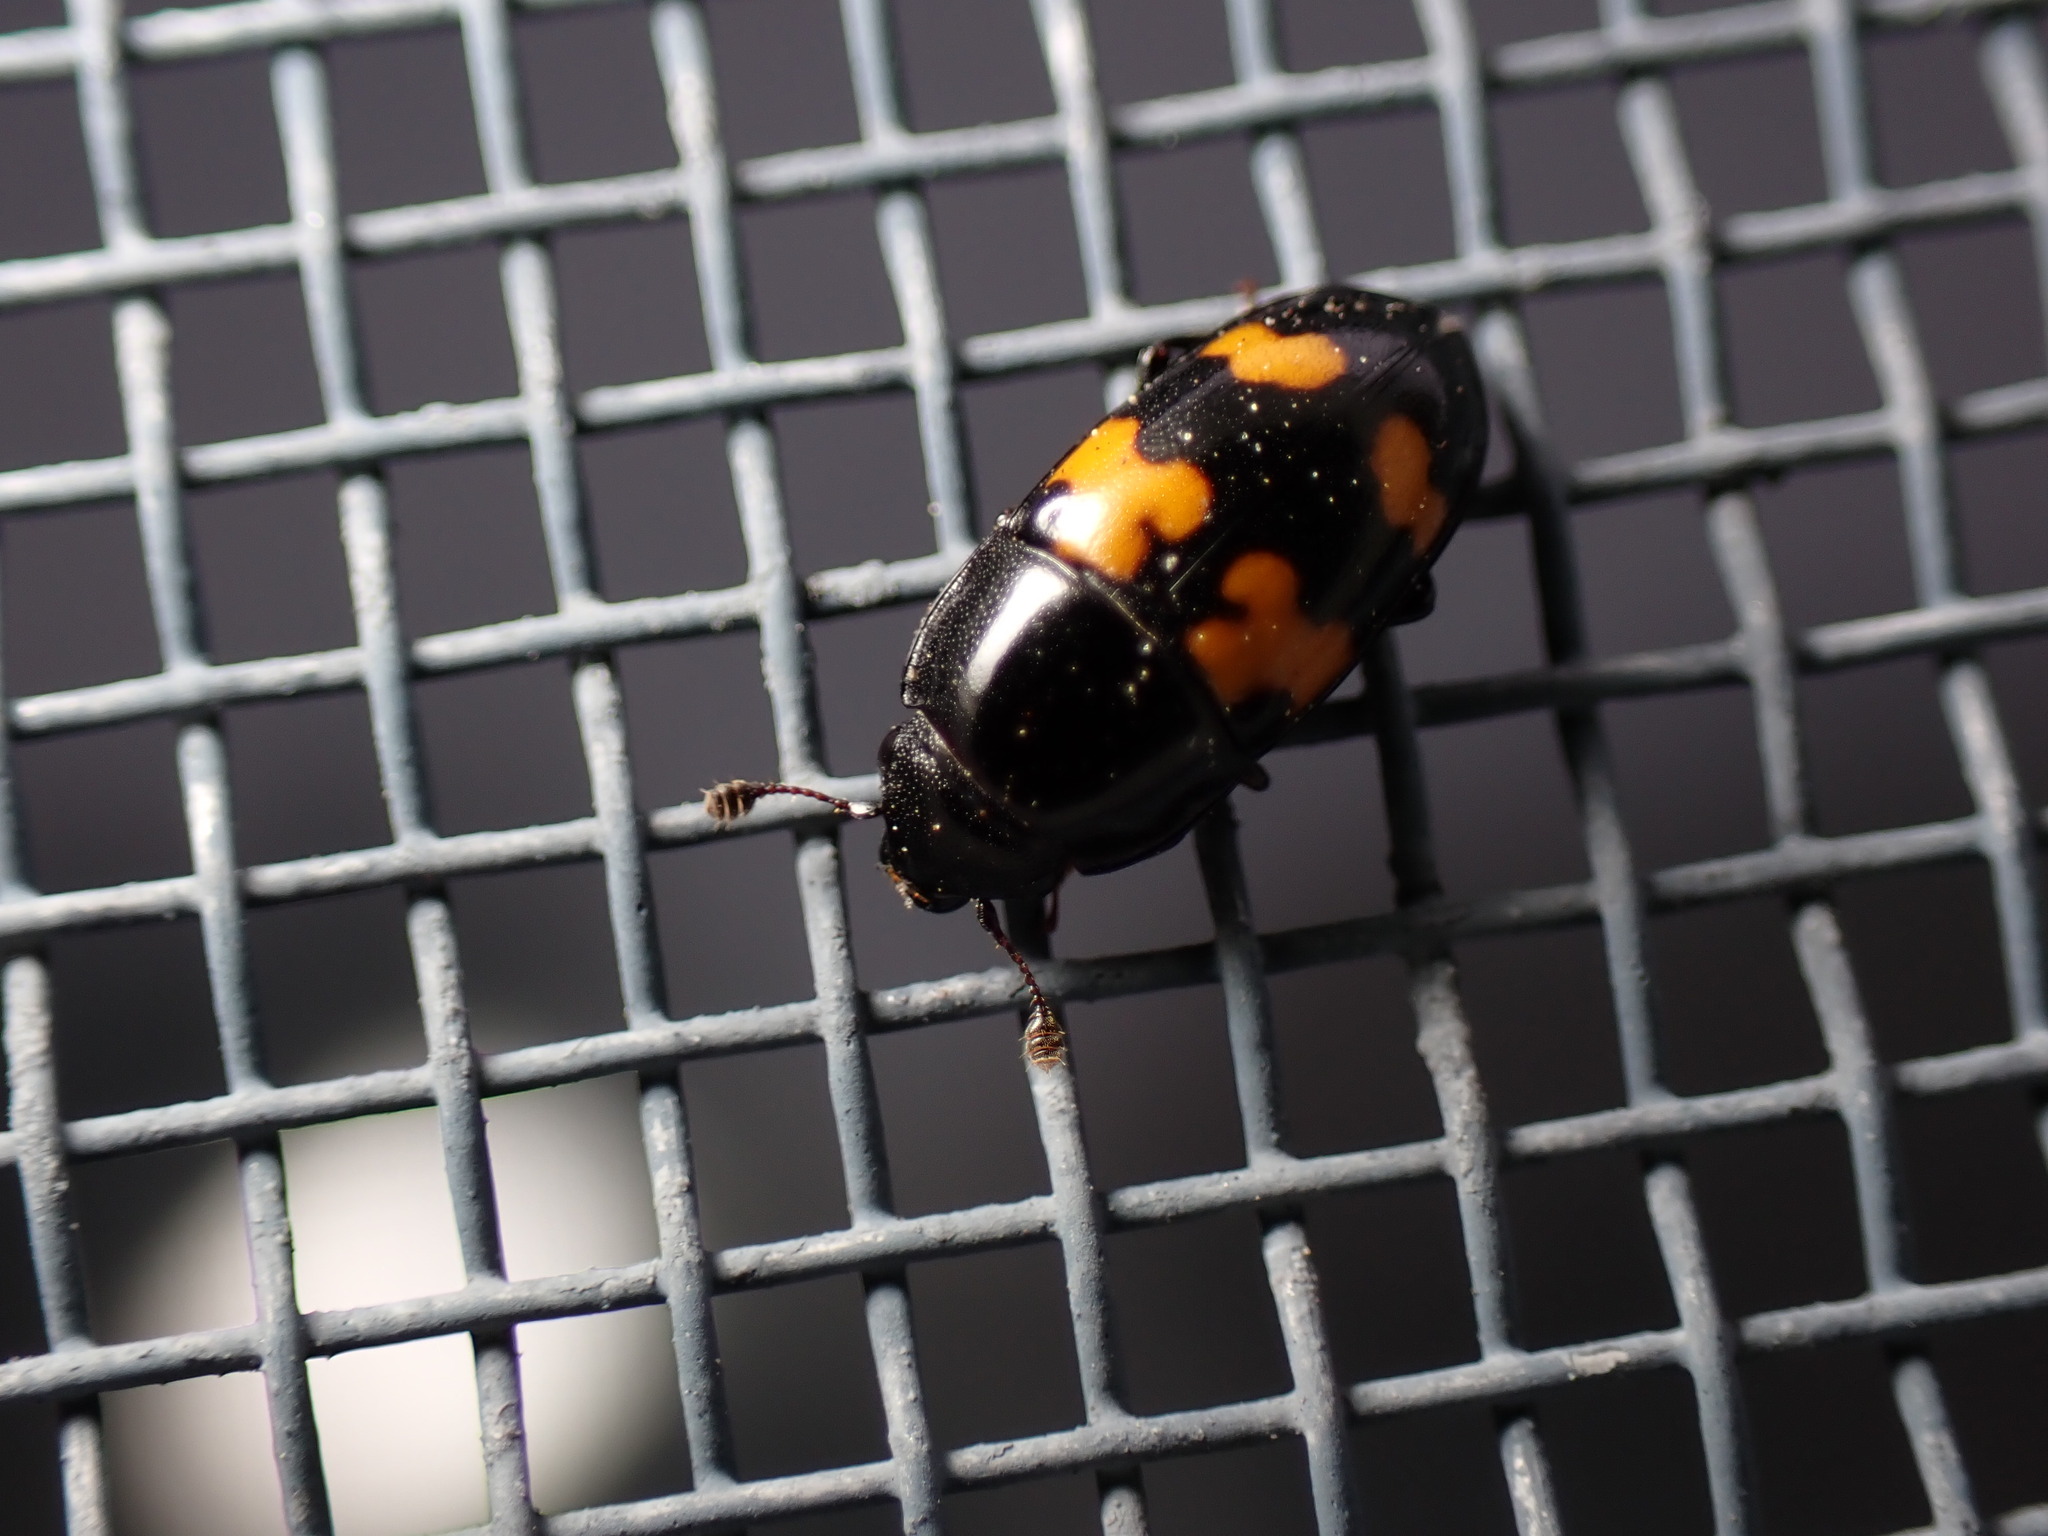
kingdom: Animalia
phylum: Arthropoda
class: Insecta
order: Coleoptera
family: Nitidulidae
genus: Glischrochilus
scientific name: Glischrochilus fasciatus
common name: Picnic beetle
